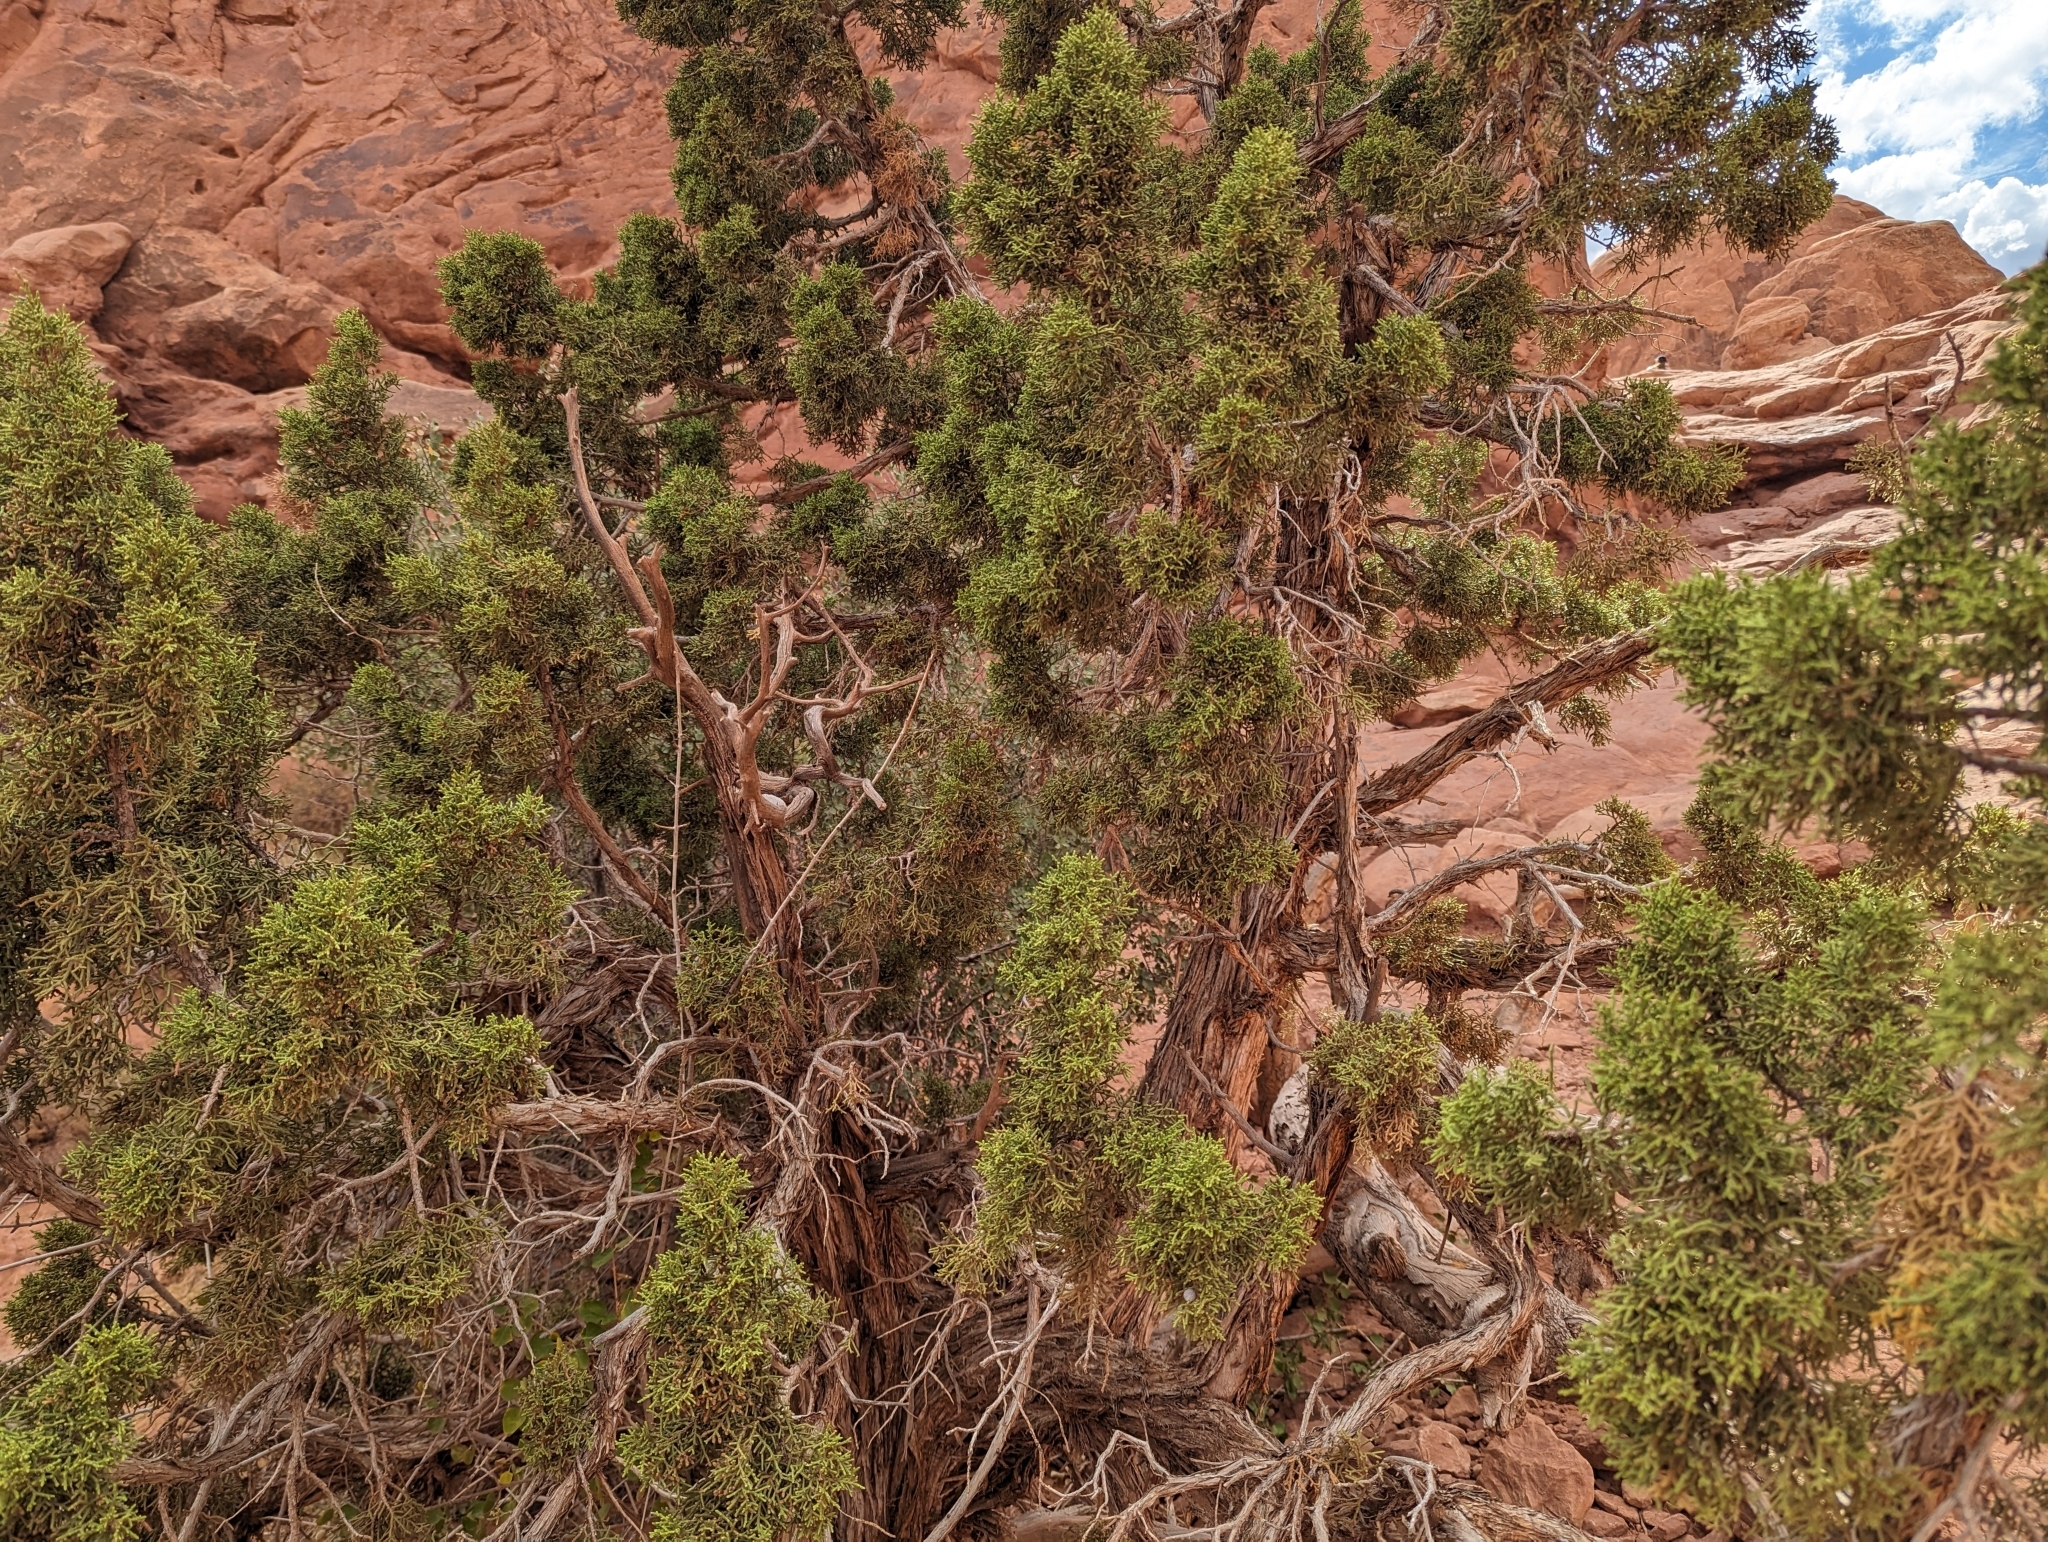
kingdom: Plantae
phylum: Tracheophyta
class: Pinopsida
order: Pinales
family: Cupressaceae
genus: Juniperus
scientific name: Juniperus osteosperma
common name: Utah juniper
